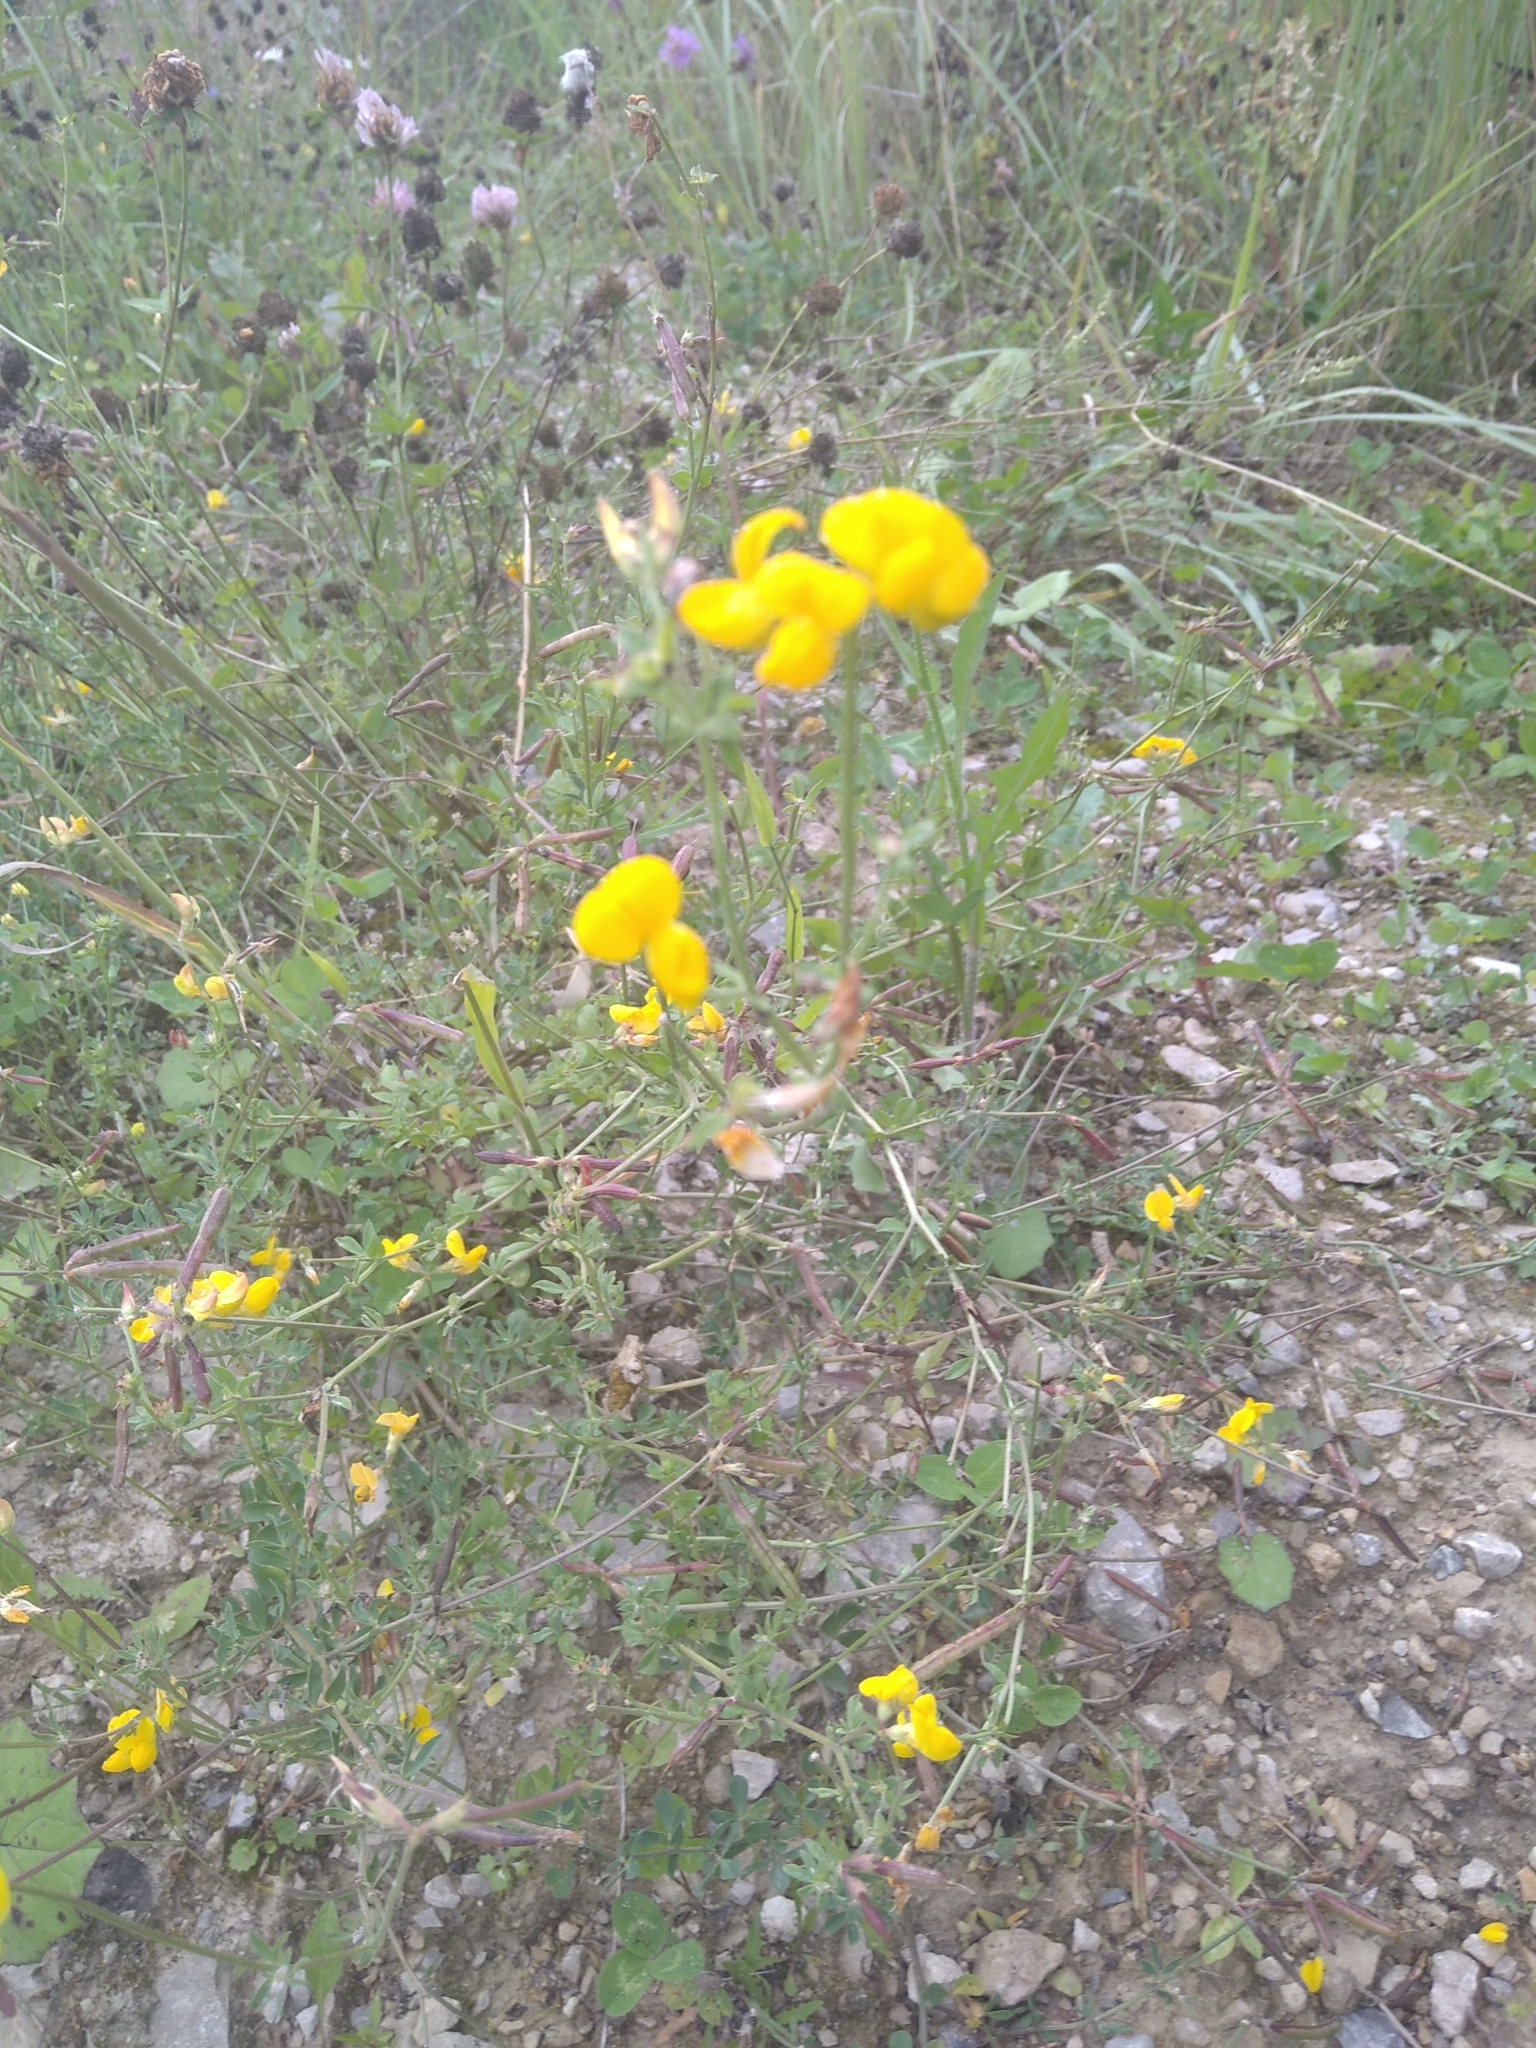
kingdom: Plantae
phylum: Tracheophyta
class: Magnoliopsida
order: Fabales
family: Fabaceae
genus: Lotus
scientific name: Lotus corniculatus
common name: Common bird's-foot-trefoil
